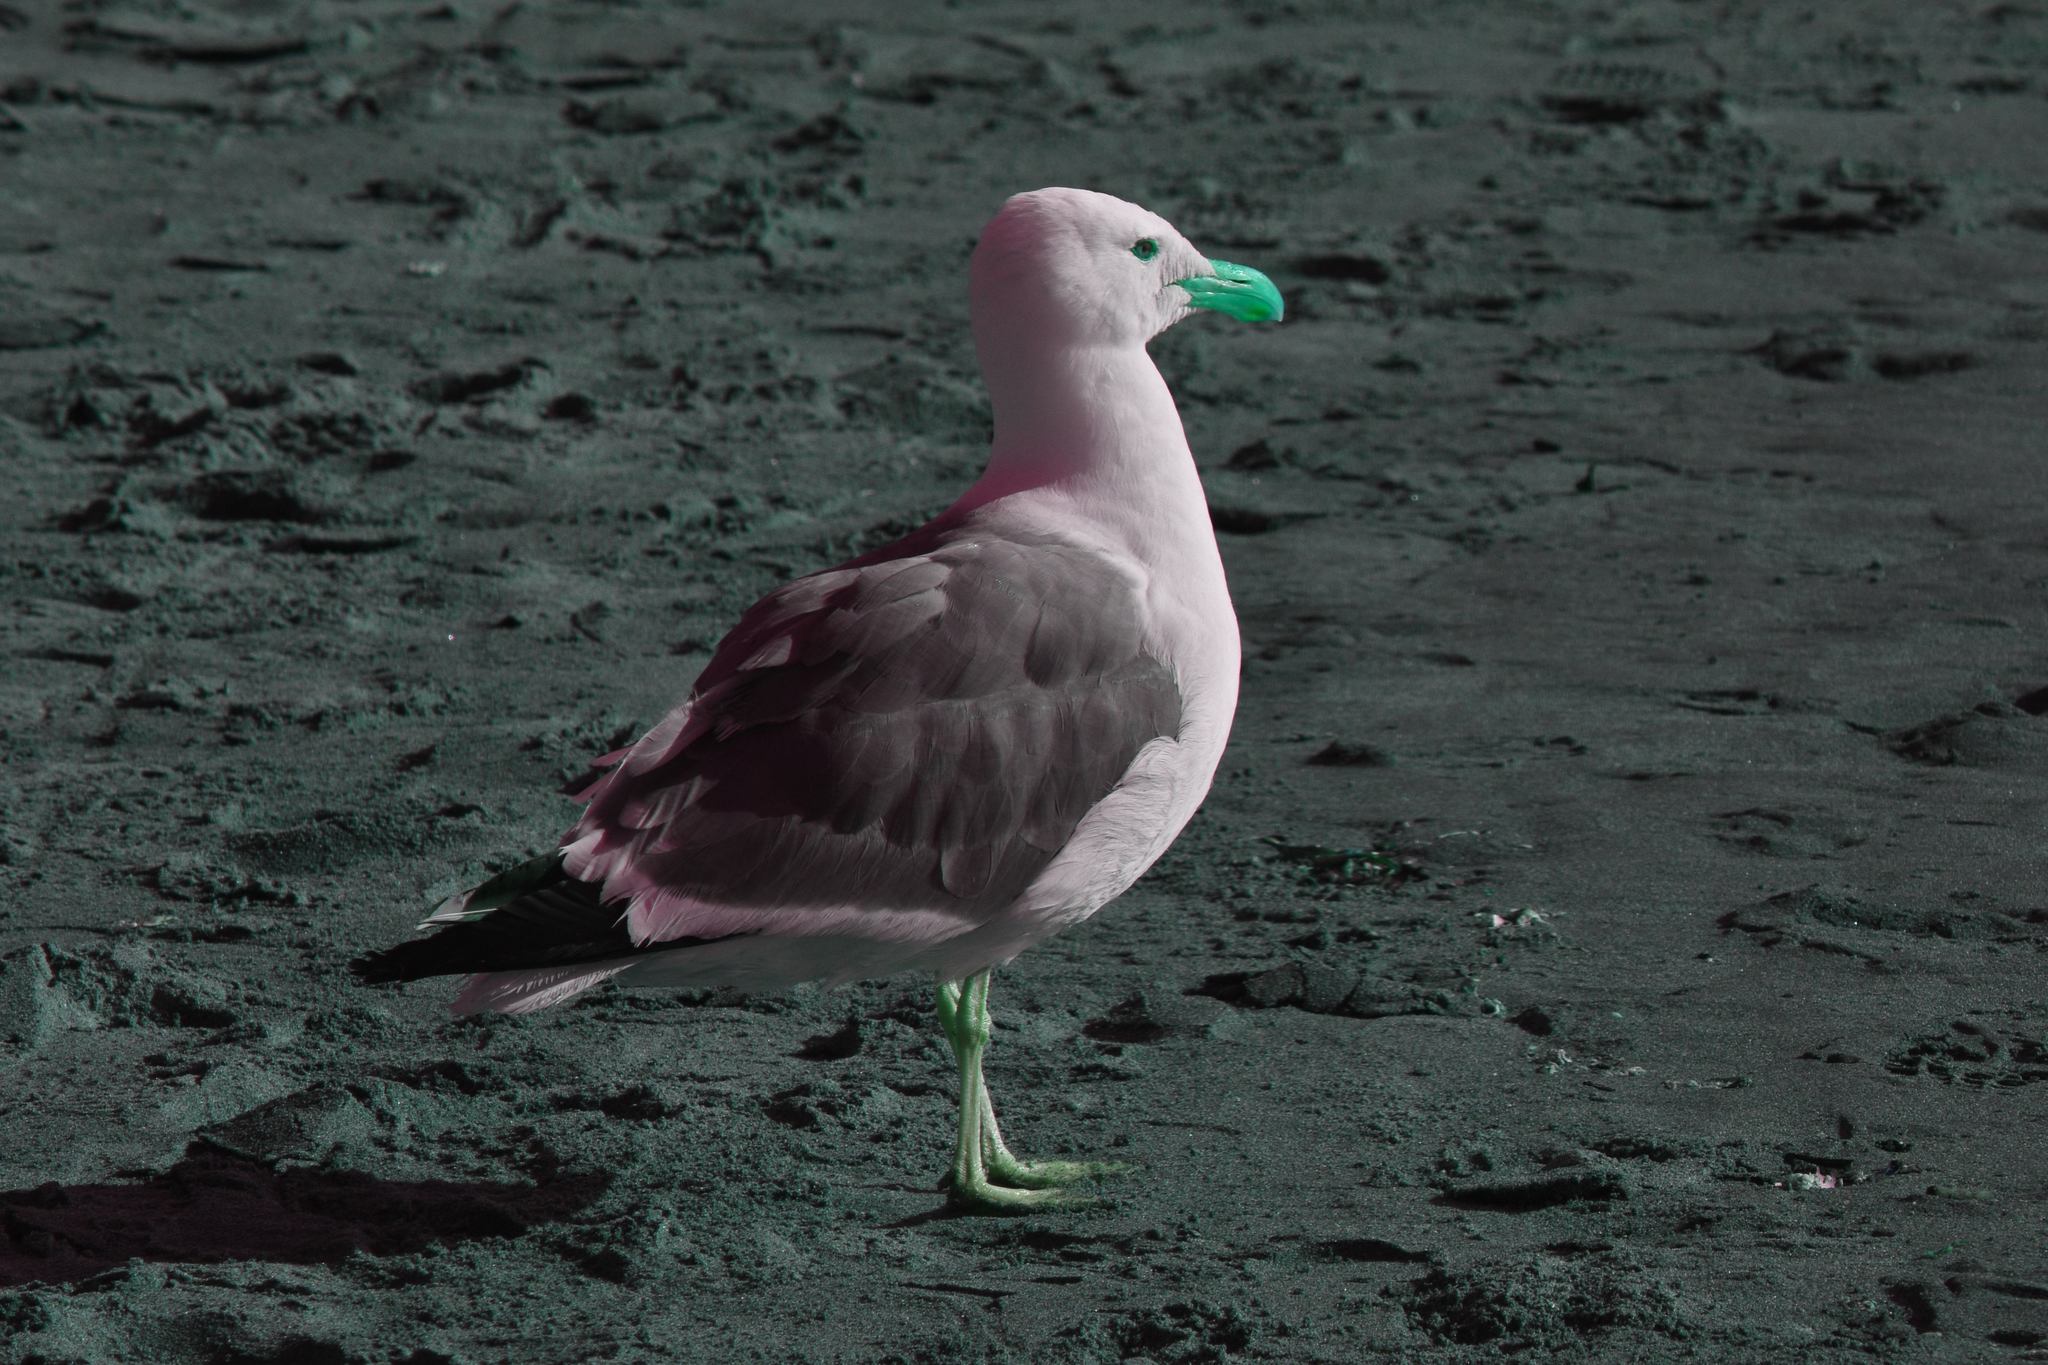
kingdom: Animalia
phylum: Chordata
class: Aves
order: Charadriiformes
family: Laridae
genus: Larus
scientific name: Larus occidentalis
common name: Western gull
